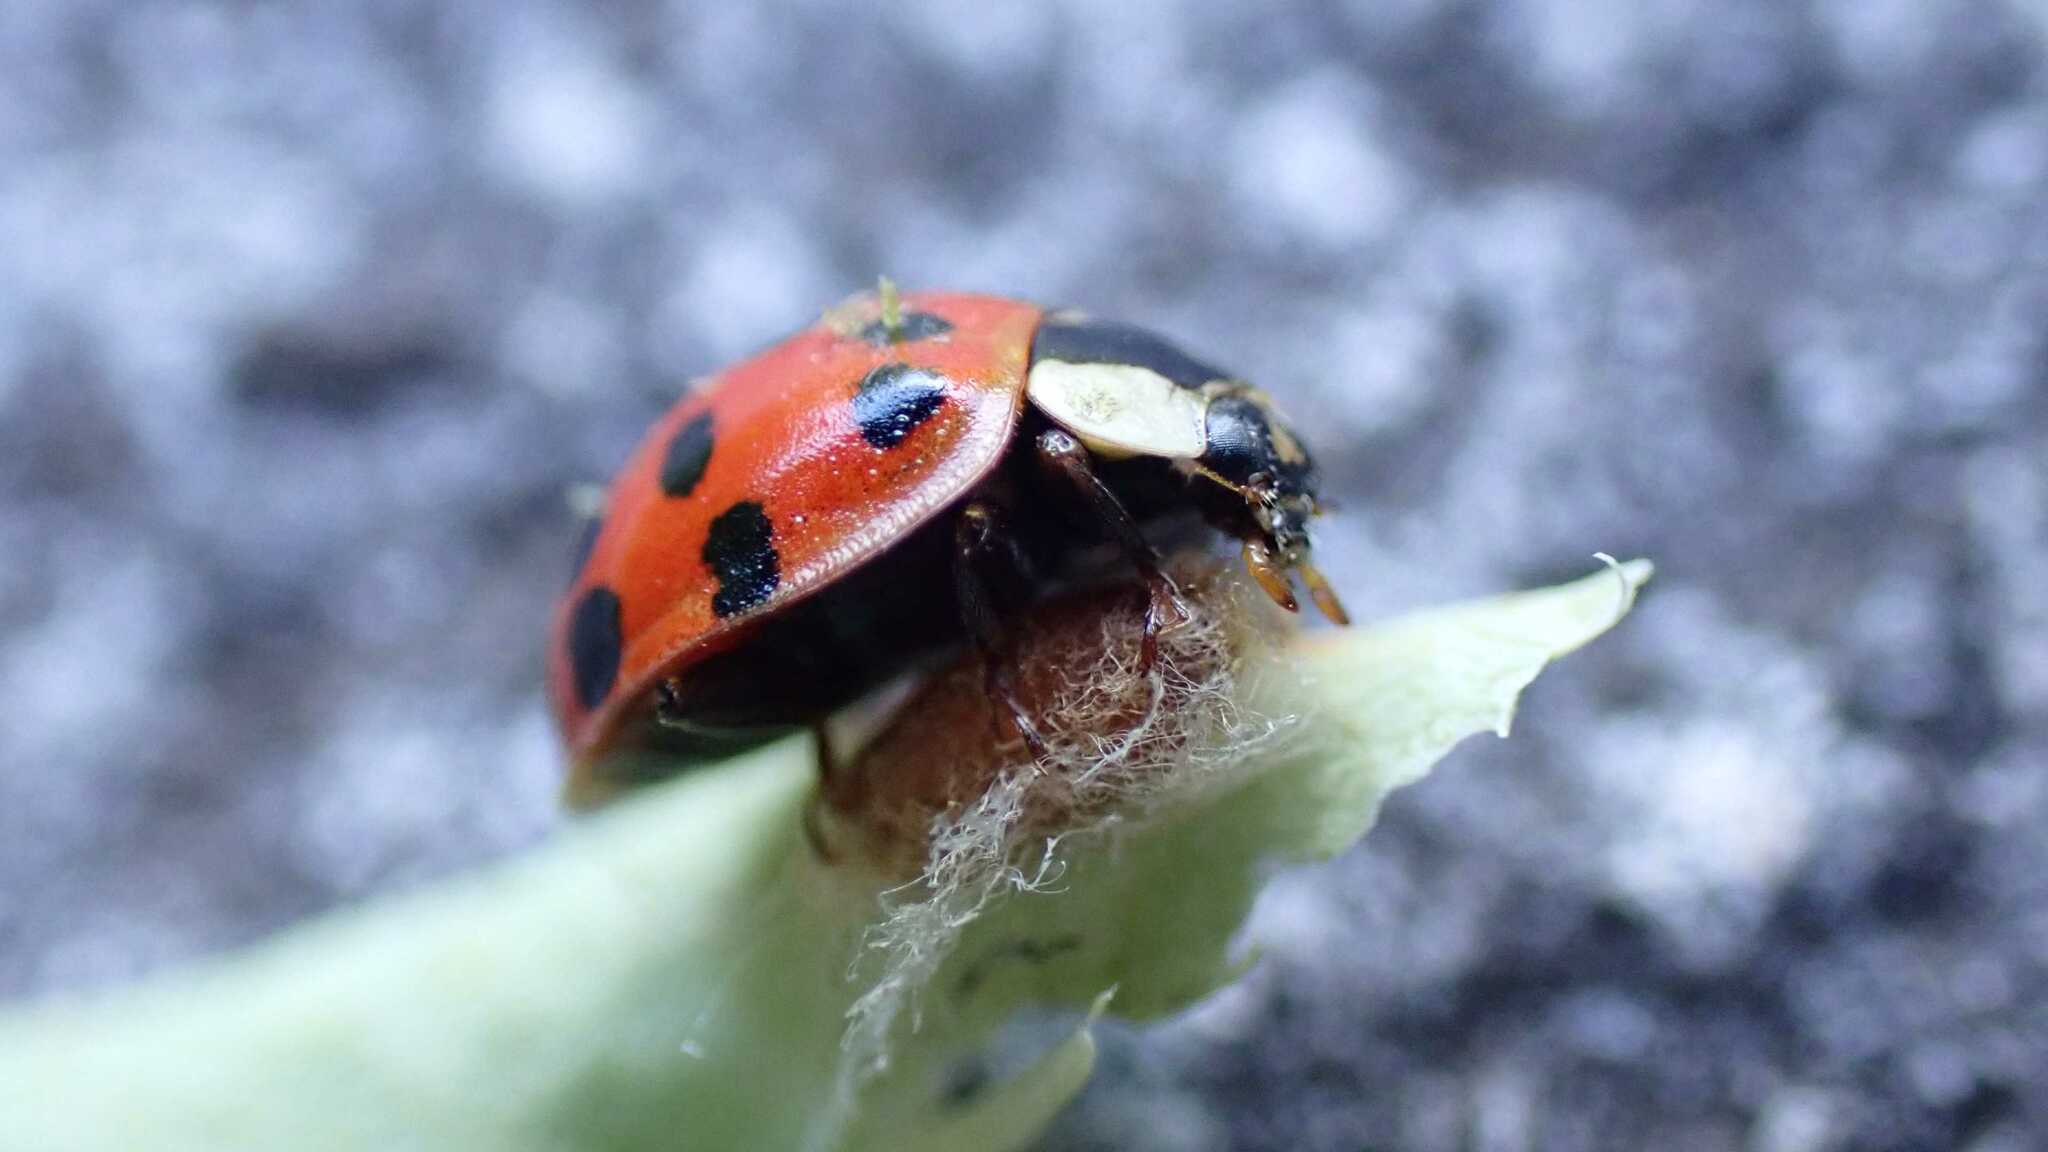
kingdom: Animalia
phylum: Arthropoda
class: Insecta
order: Coleoptera
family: Coccinellidae
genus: Harmonia
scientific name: Harmonia axyridis
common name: Harlequin ladybird
